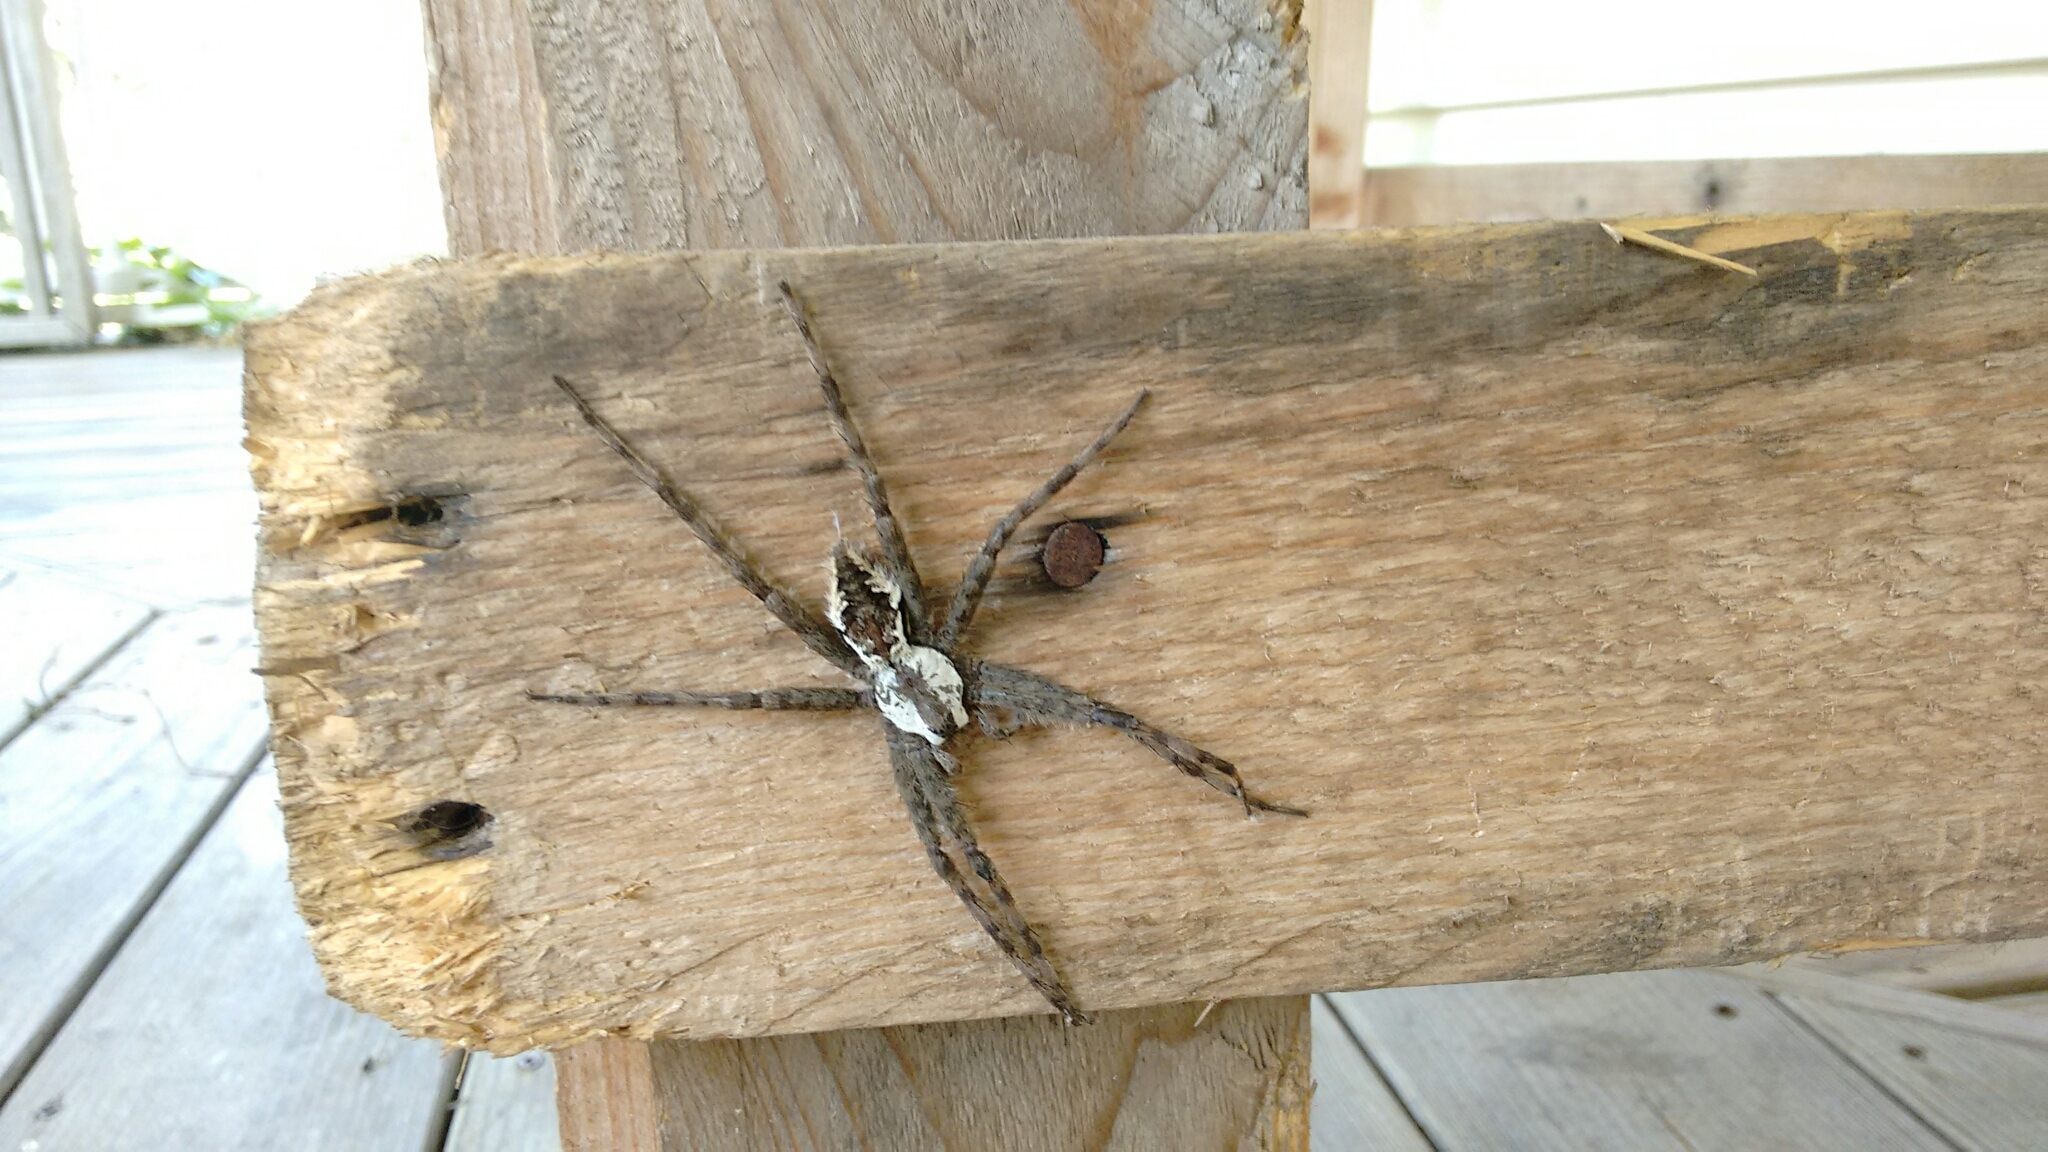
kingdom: Animalia
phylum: Arthropoda
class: Arachnida
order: Araneae
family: Pisauridae
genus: Dolomedes
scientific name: Dolomedes albineus
